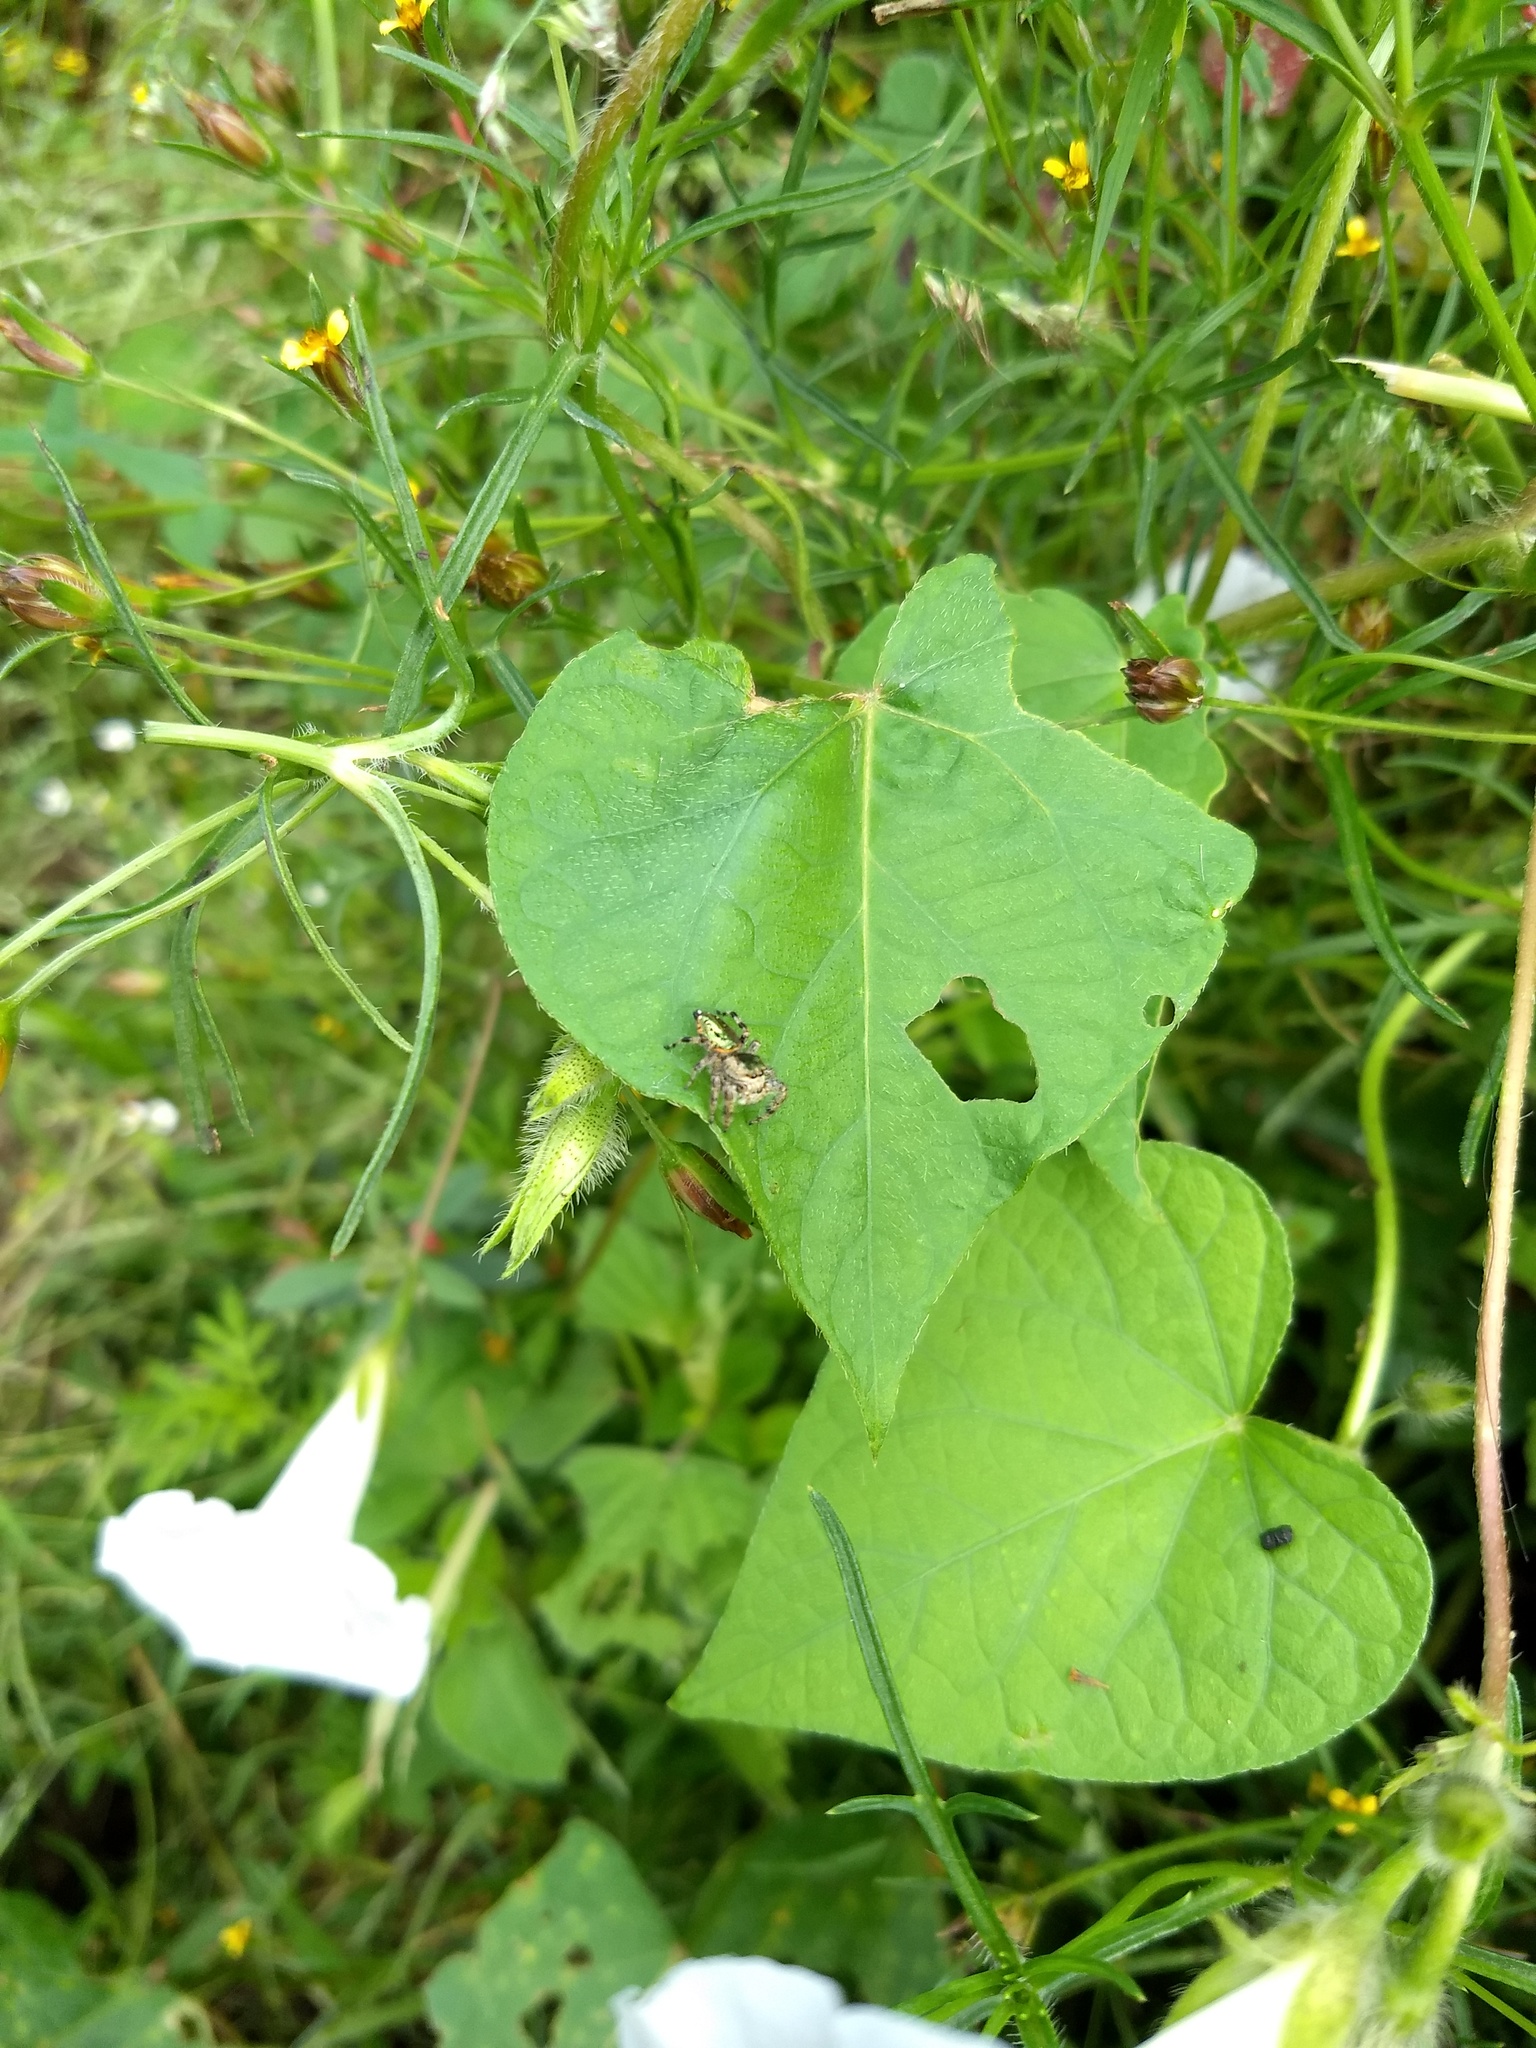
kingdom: Animalia
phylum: Arthropoda
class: Arachnida
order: Araneae
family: Salticidae
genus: Paraphidippus
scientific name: Paraphidippus aurantius
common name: Jumping spiders
